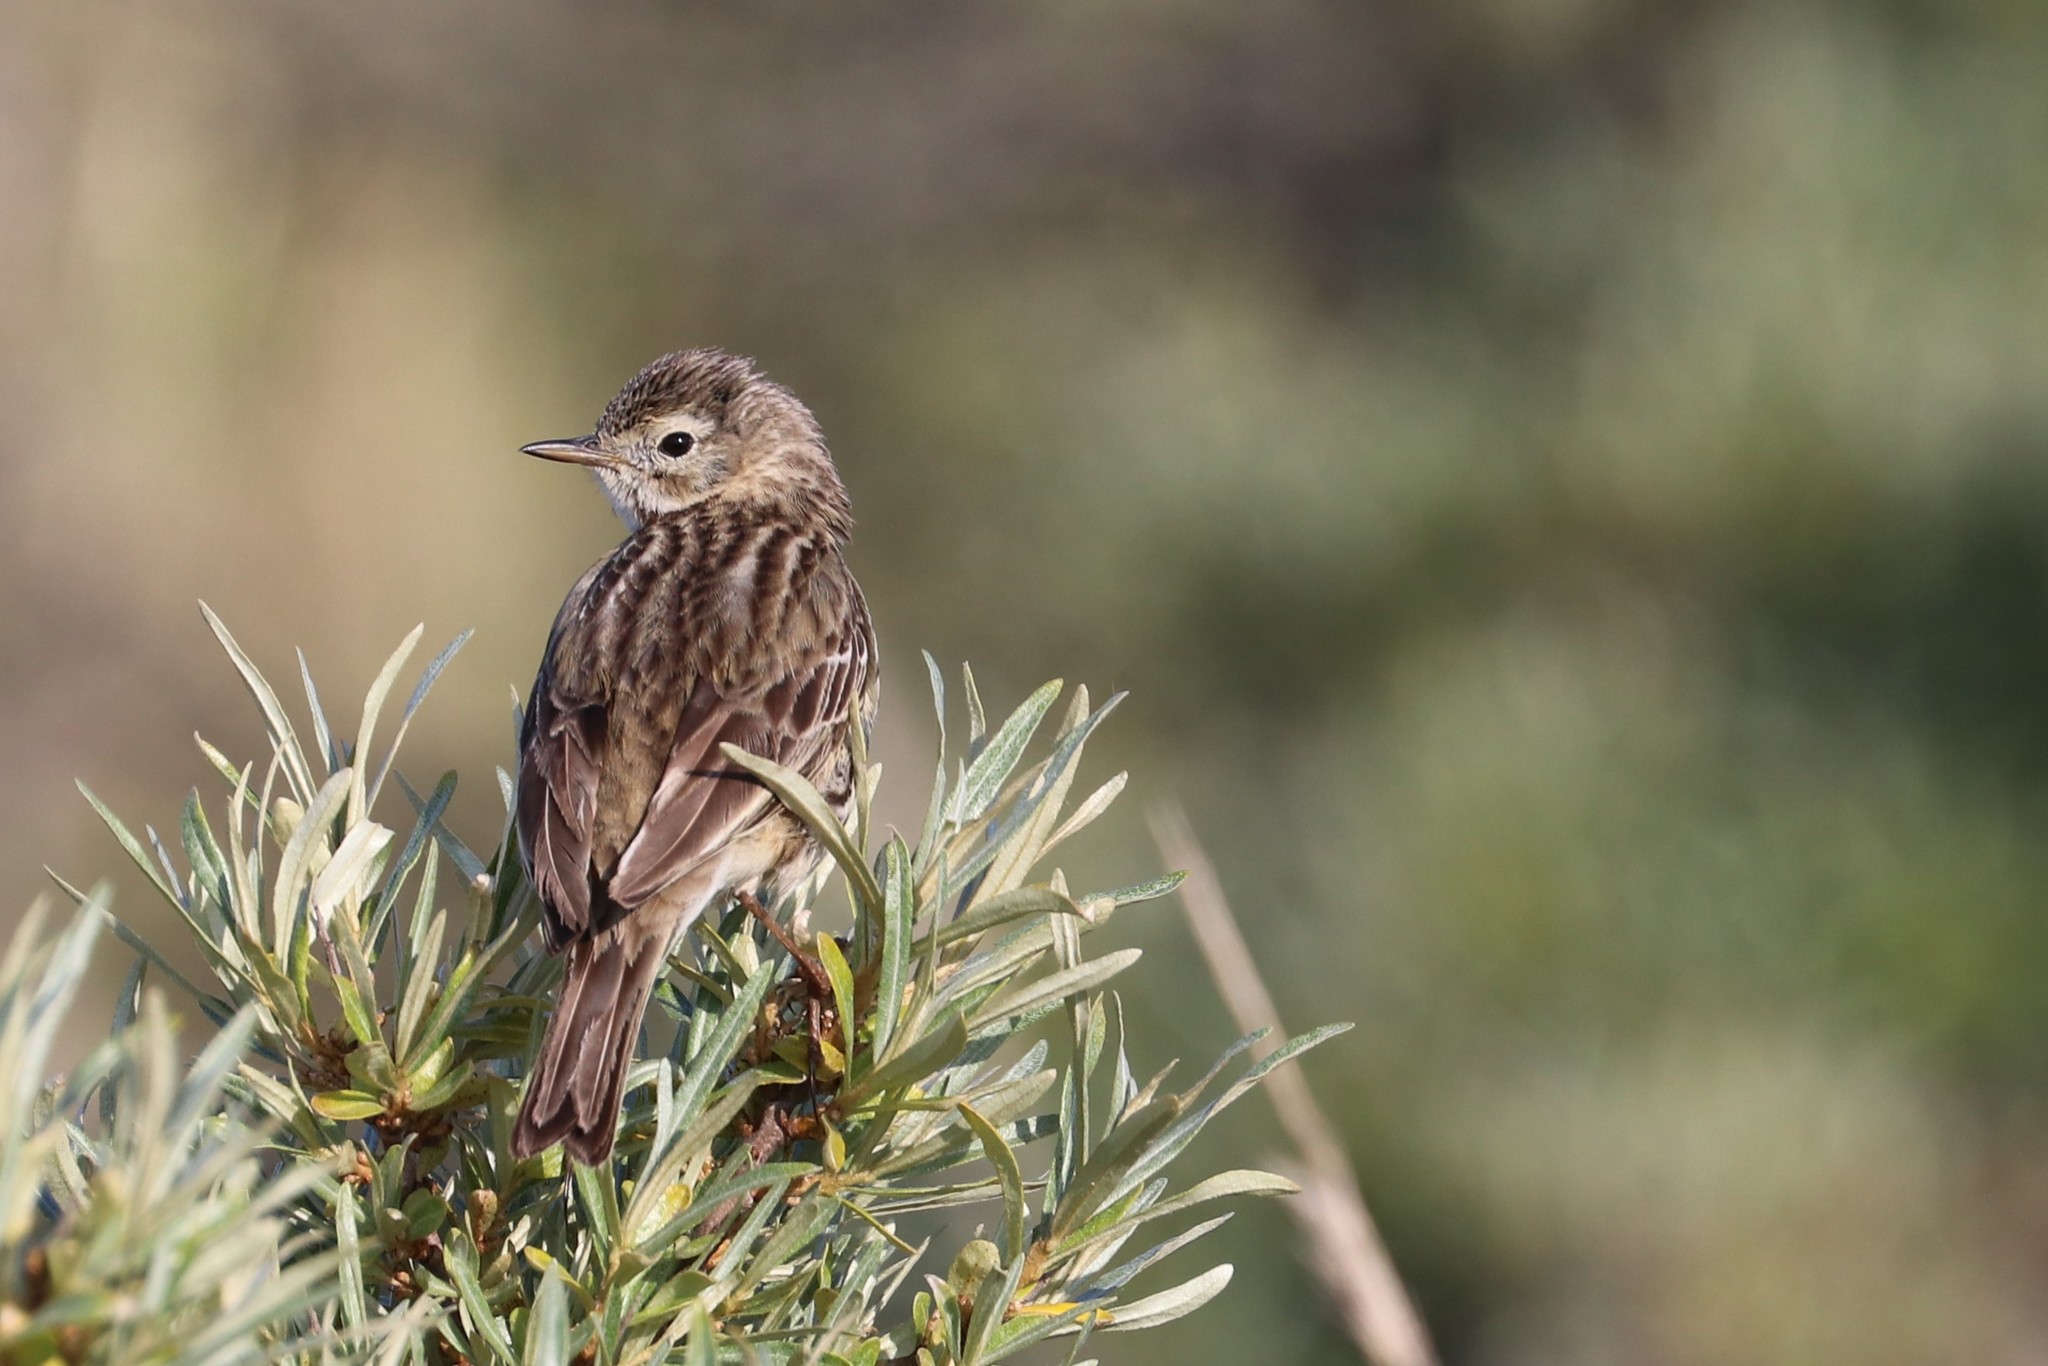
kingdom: Animalia
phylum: Chordata
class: Aves
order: Passeriformes
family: Motacillidae
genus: Anthus
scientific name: Anthus pratensis
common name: Meadow pipit
